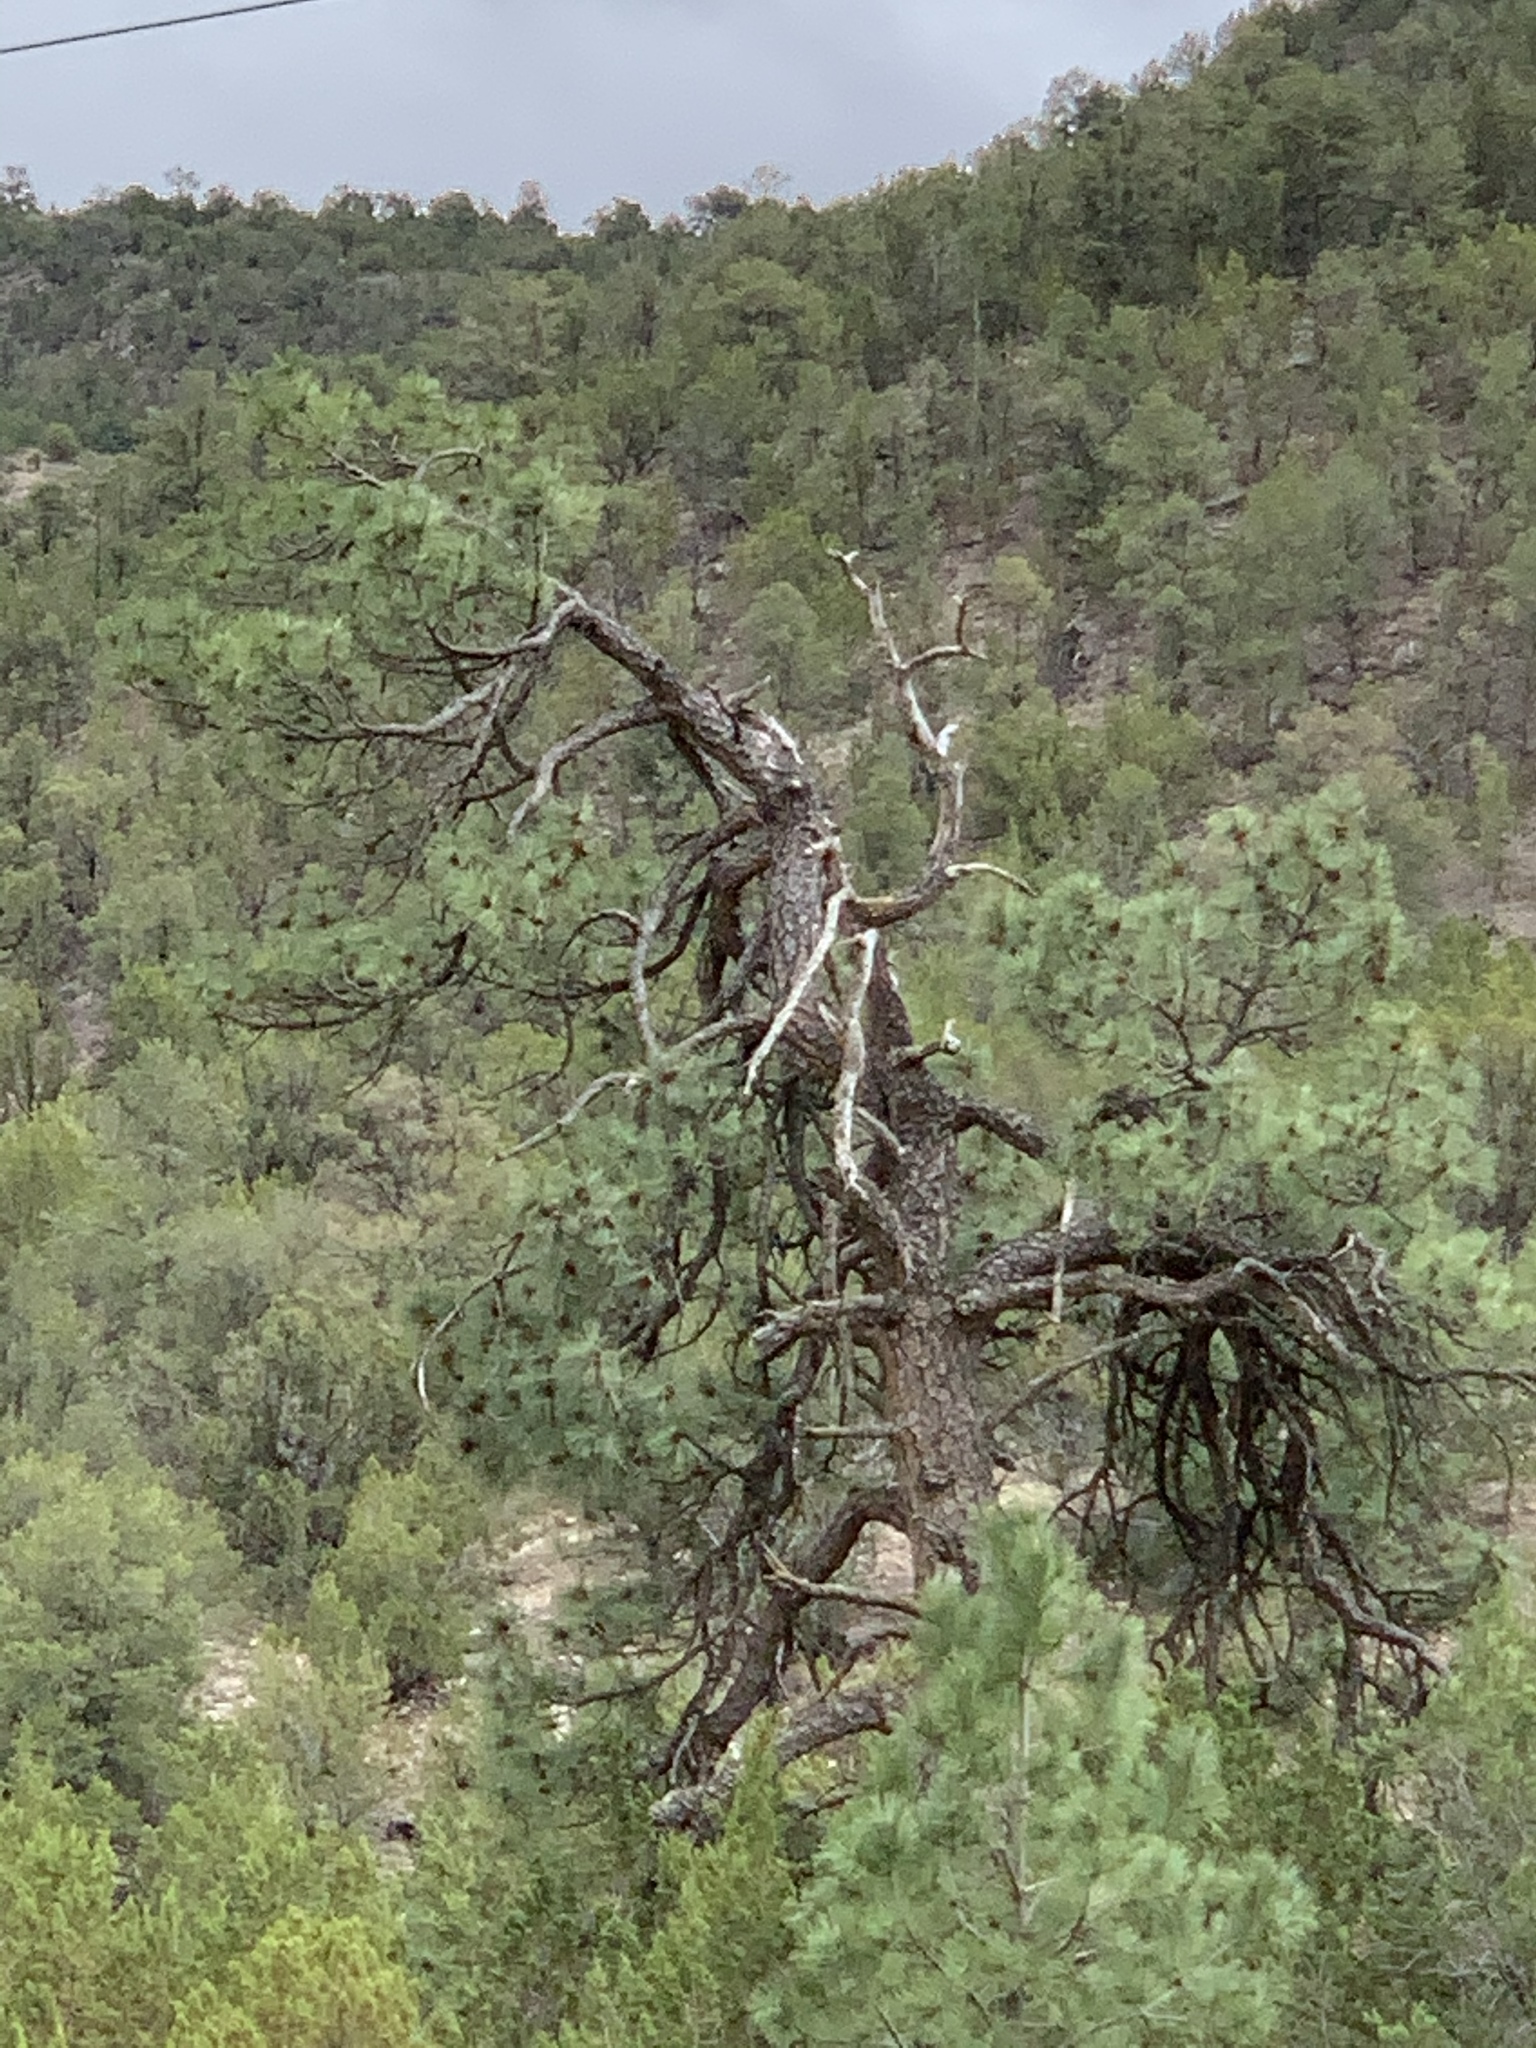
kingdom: Plantae
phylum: Tracheophyta
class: Pinopsida
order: Pinales
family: Pinaceae
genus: Pinus
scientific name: Pinus ponderosa
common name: Western yellow-pine
